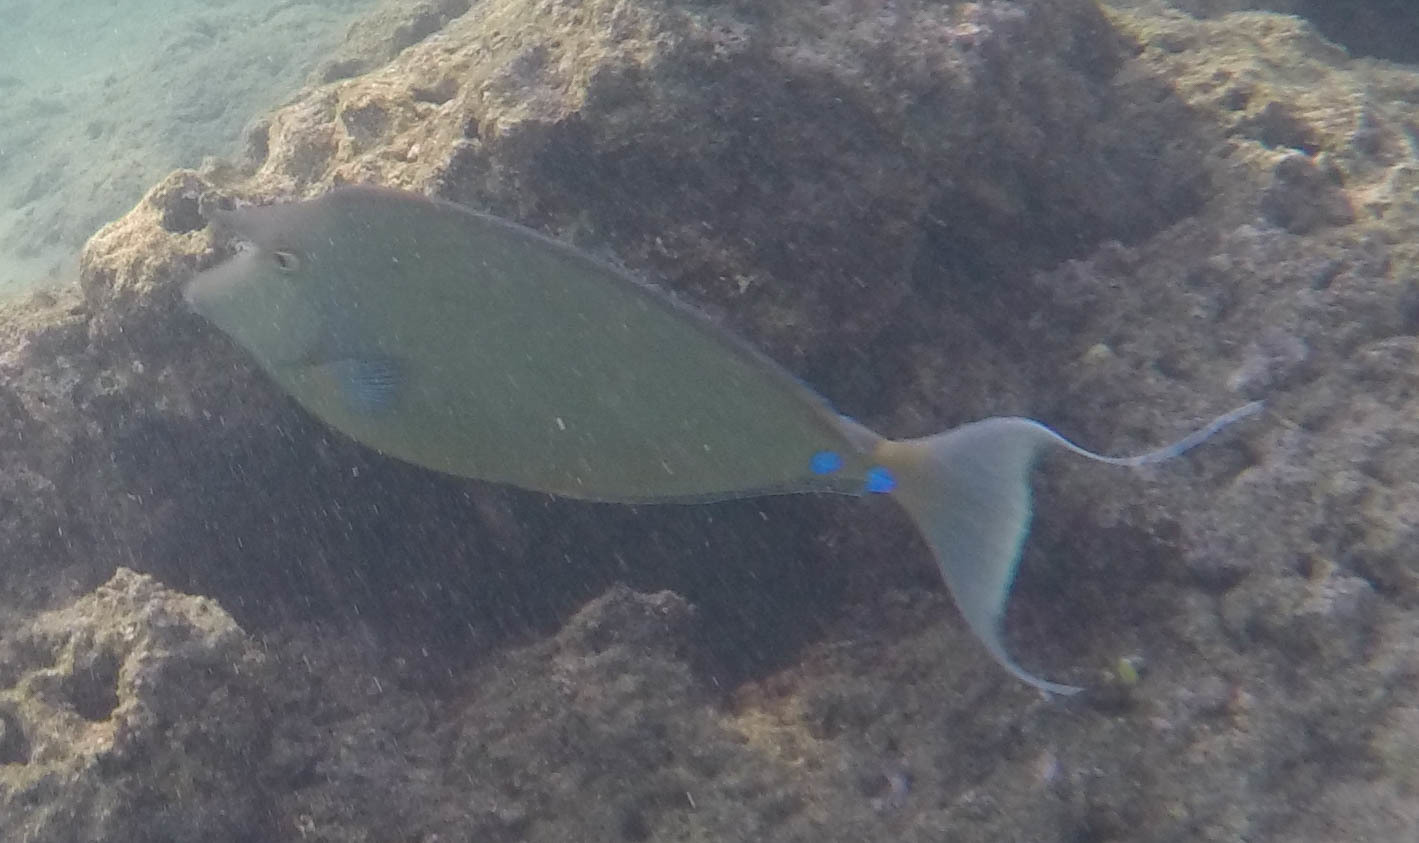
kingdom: Animalia
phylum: Chordata
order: Perciformes
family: Acanthuridae
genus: Naso
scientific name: Naso unicornis
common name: Bluespine unicornfish
